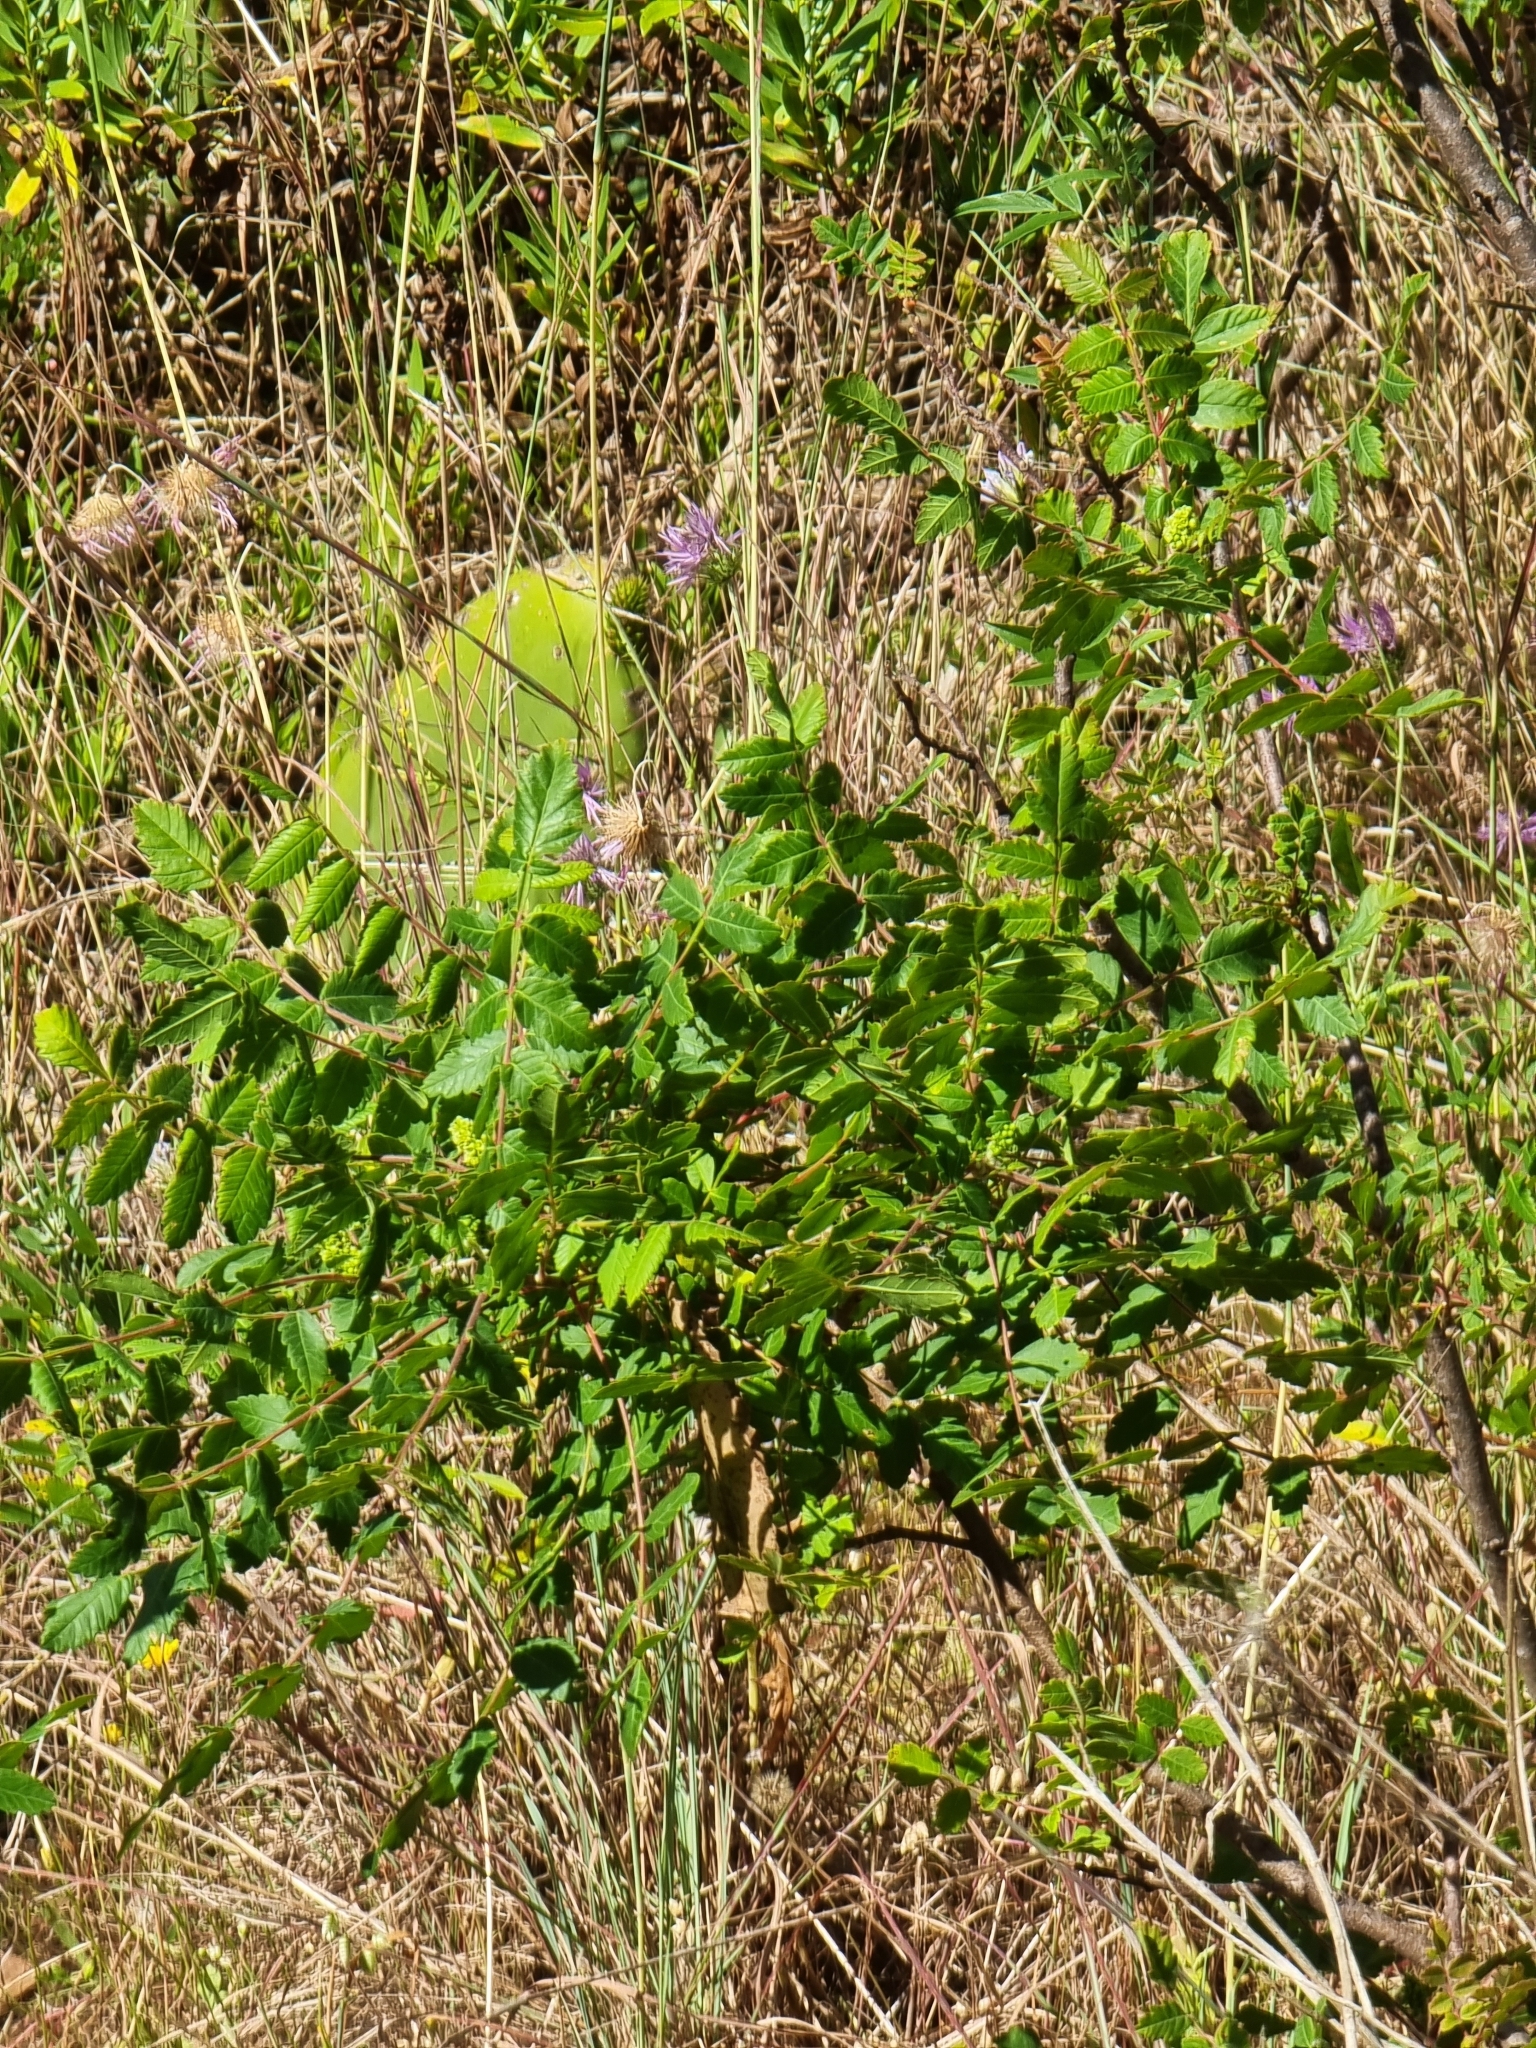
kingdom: Plantae
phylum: Tracheophyta
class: Magnoliopsida
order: Sapindales
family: Anacardiaceae
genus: Rhus
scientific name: Rhus coriaria
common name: Tanner's sumach
